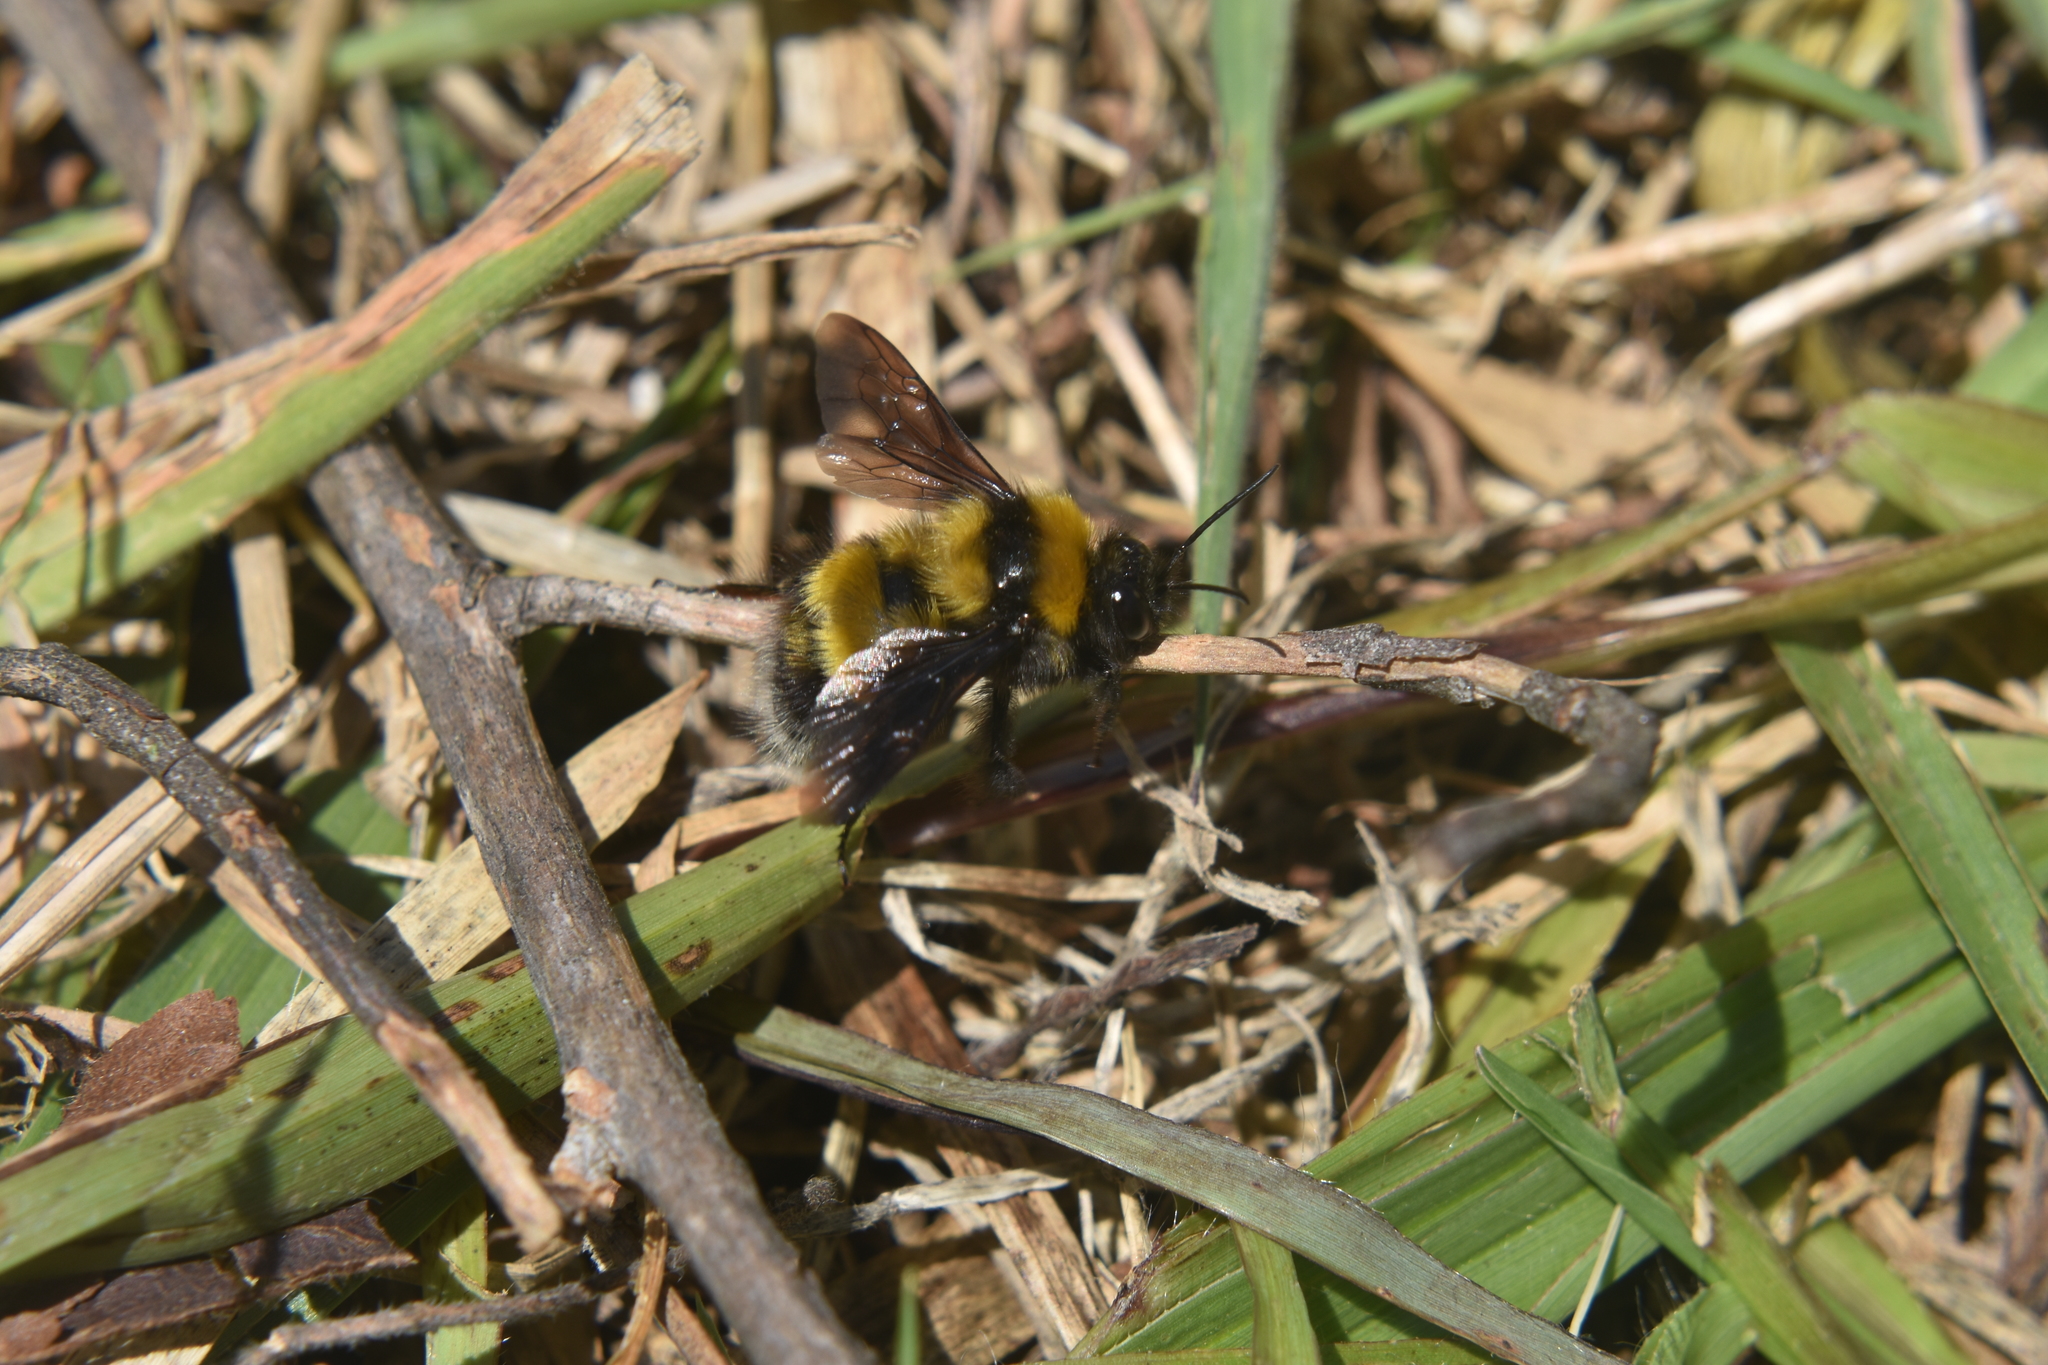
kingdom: Animalia
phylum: Arthropoda
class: Insecta
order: Hymenoptera
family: Apidae
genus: Bombus
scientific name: Bombus hortulanus
